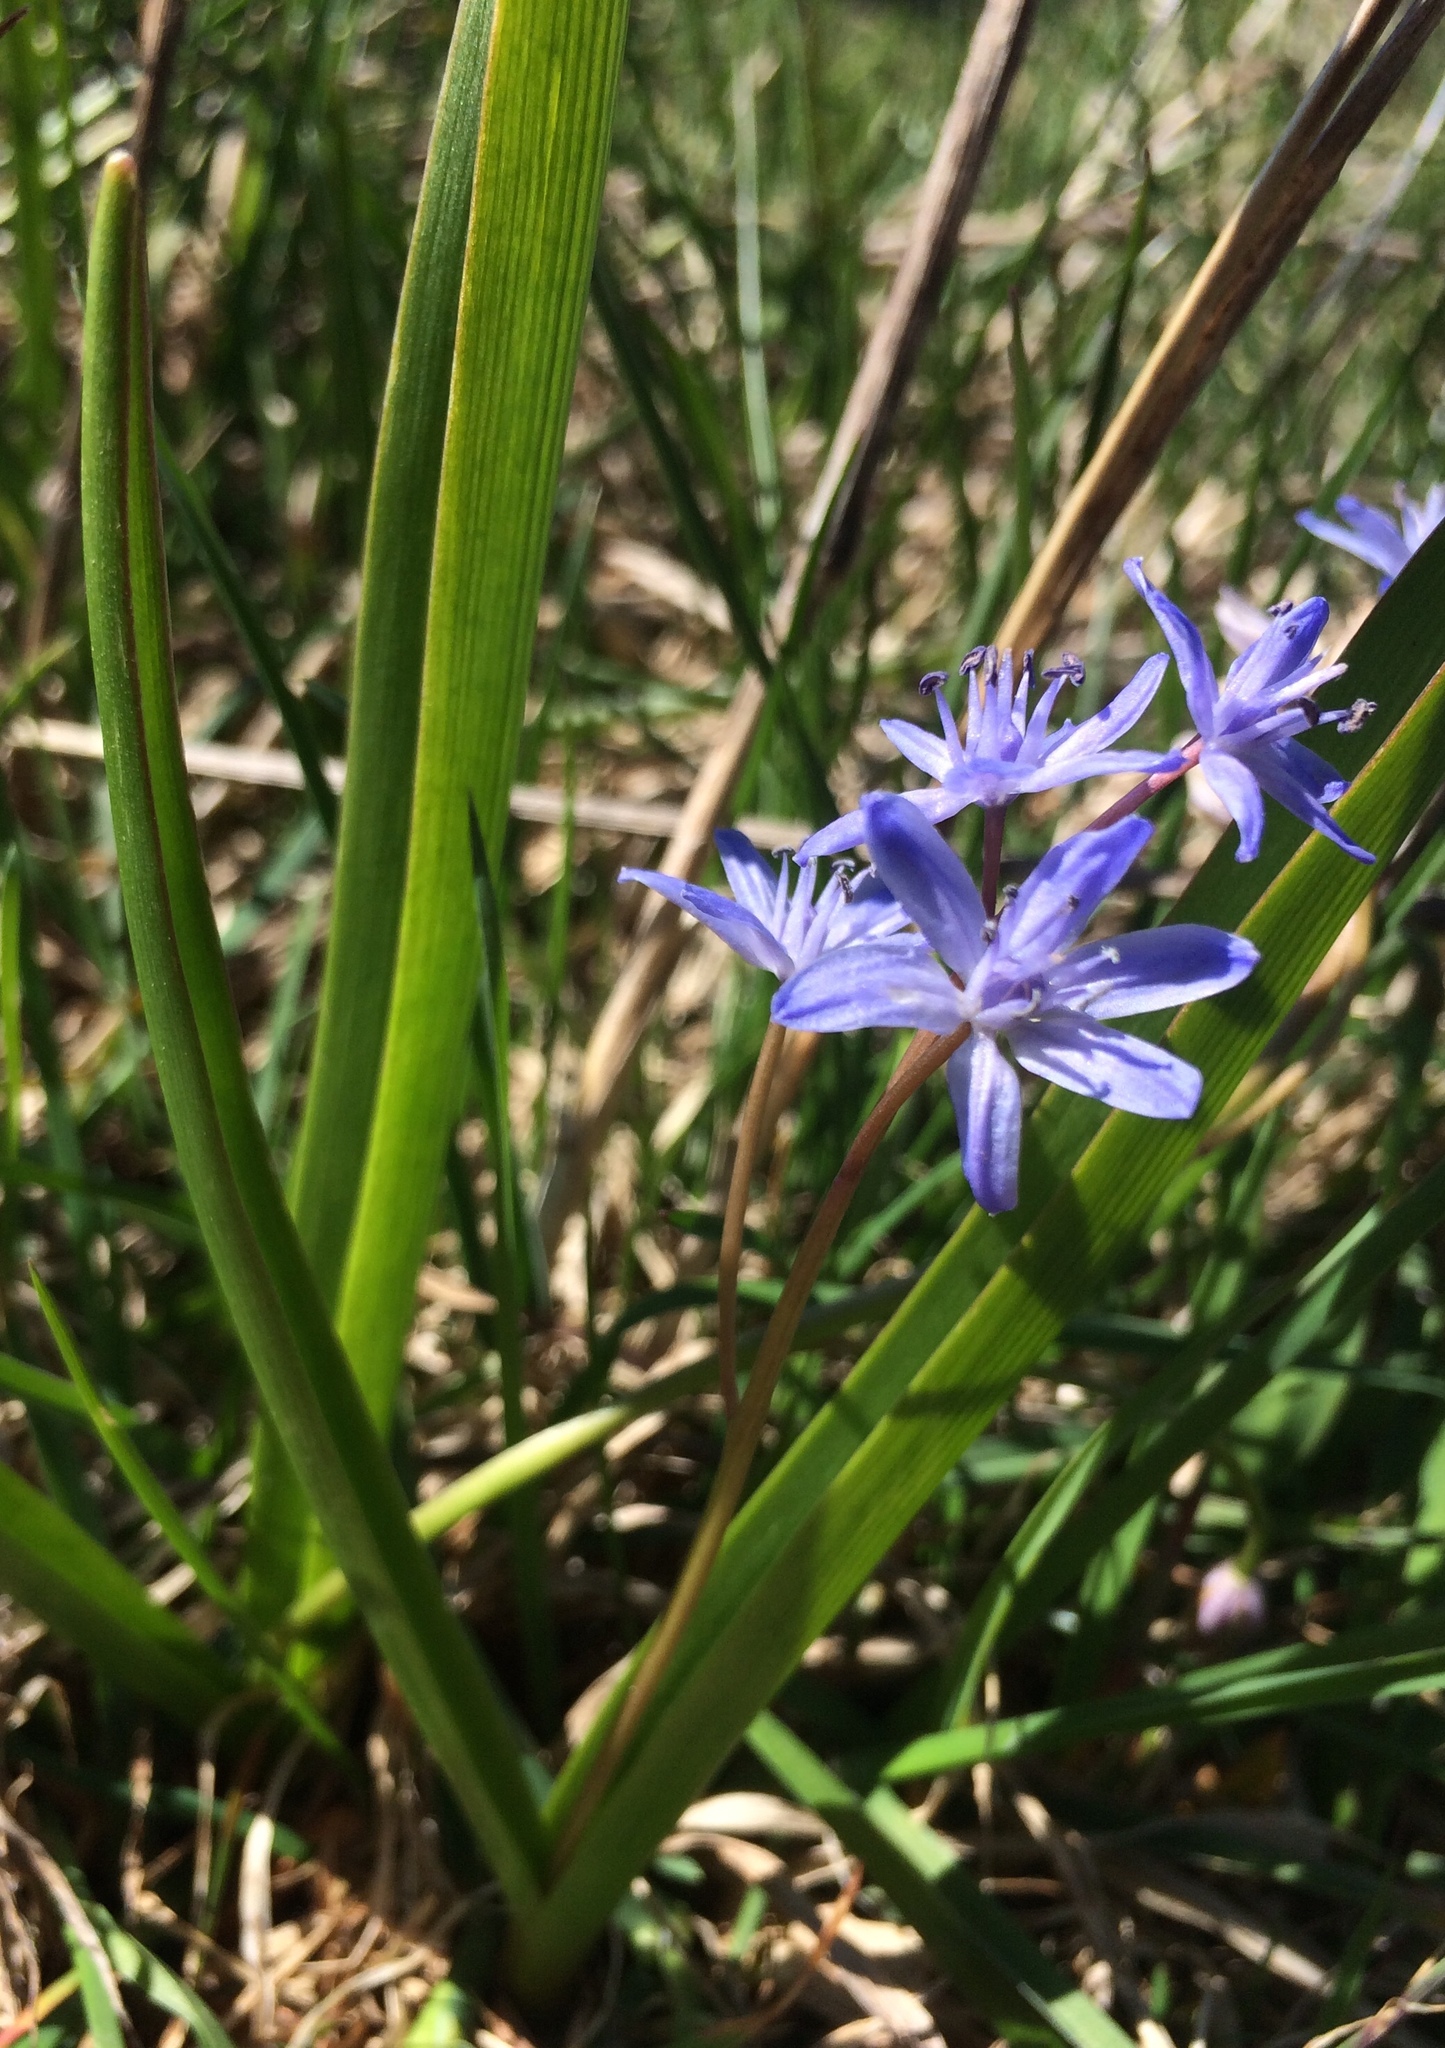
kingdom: Plantae
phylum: Tracheophyta
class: Liliopsida
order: Asparagales
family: Asparagaceae
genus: Scilla
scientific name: Scilla bifolia
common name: Alpine squill
